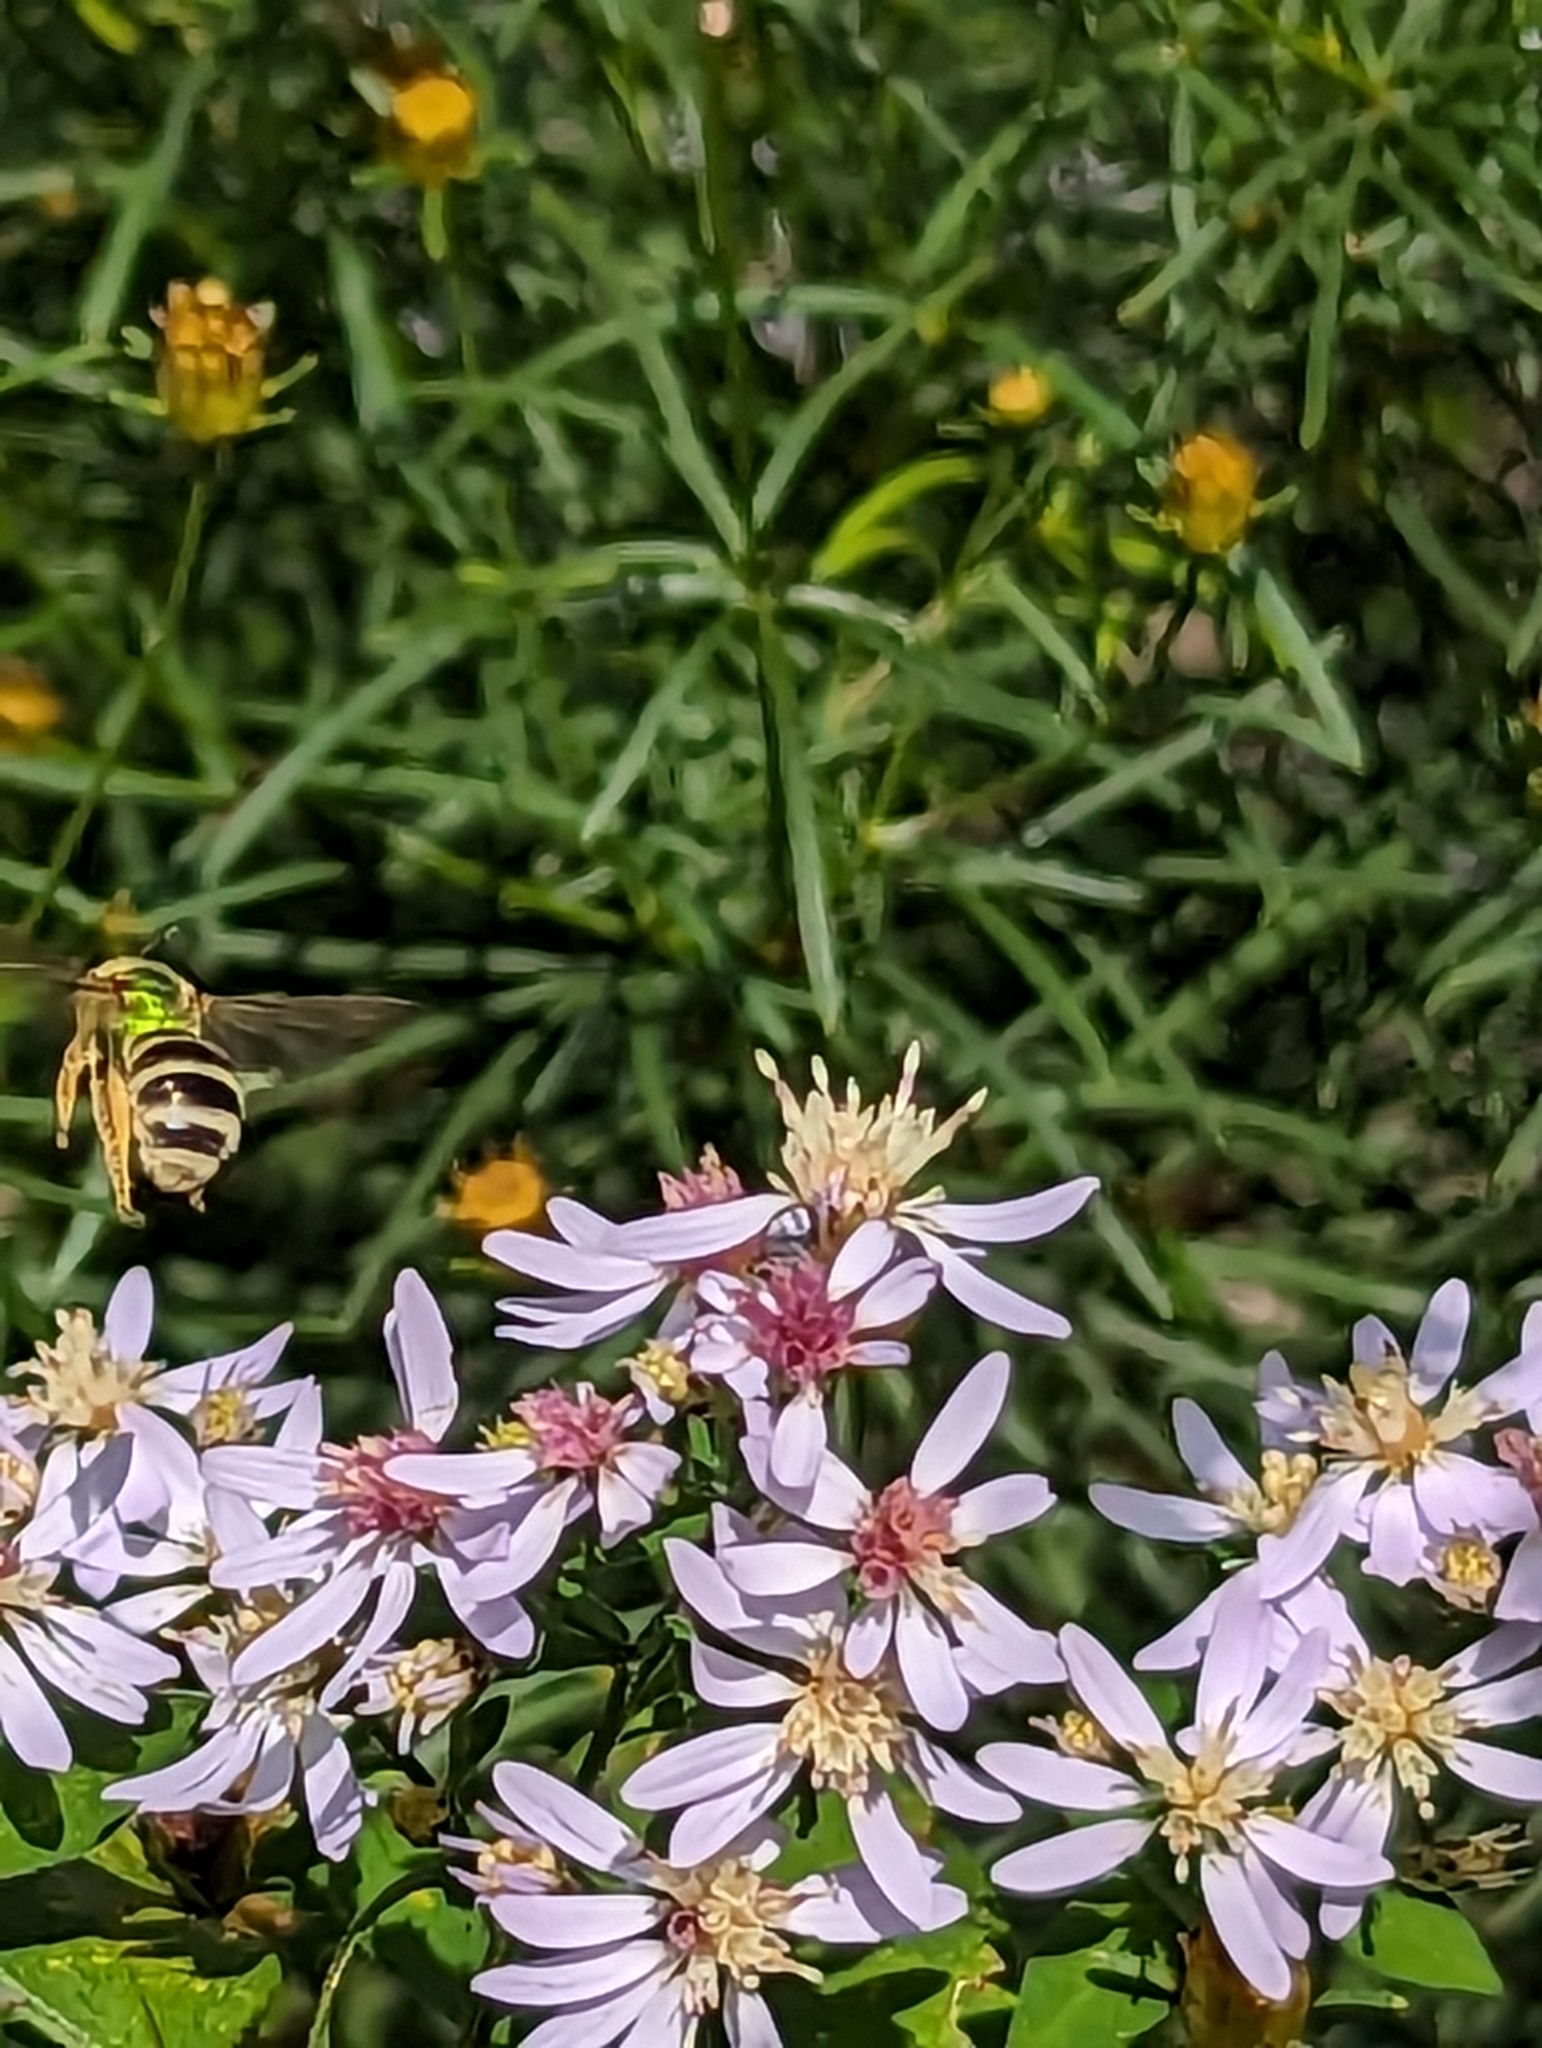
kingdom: Animalia
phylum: Arthropoda
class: Insecta
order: Hymenoptera
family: Halictidae
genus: Agapostemon
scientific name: Agapostemon virescens
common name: Bicolored striped sweat bee
